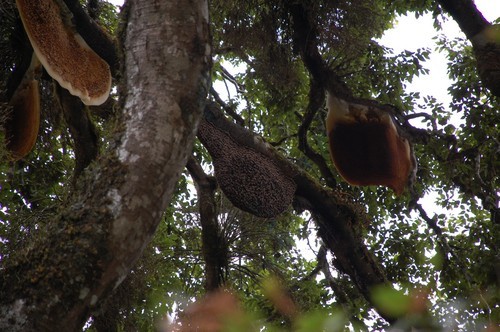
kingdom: Animalia
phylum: Arthropoda
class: Insecta
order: Hymenoptera
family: Apidae
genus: Apis
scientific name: Apis dorsata
